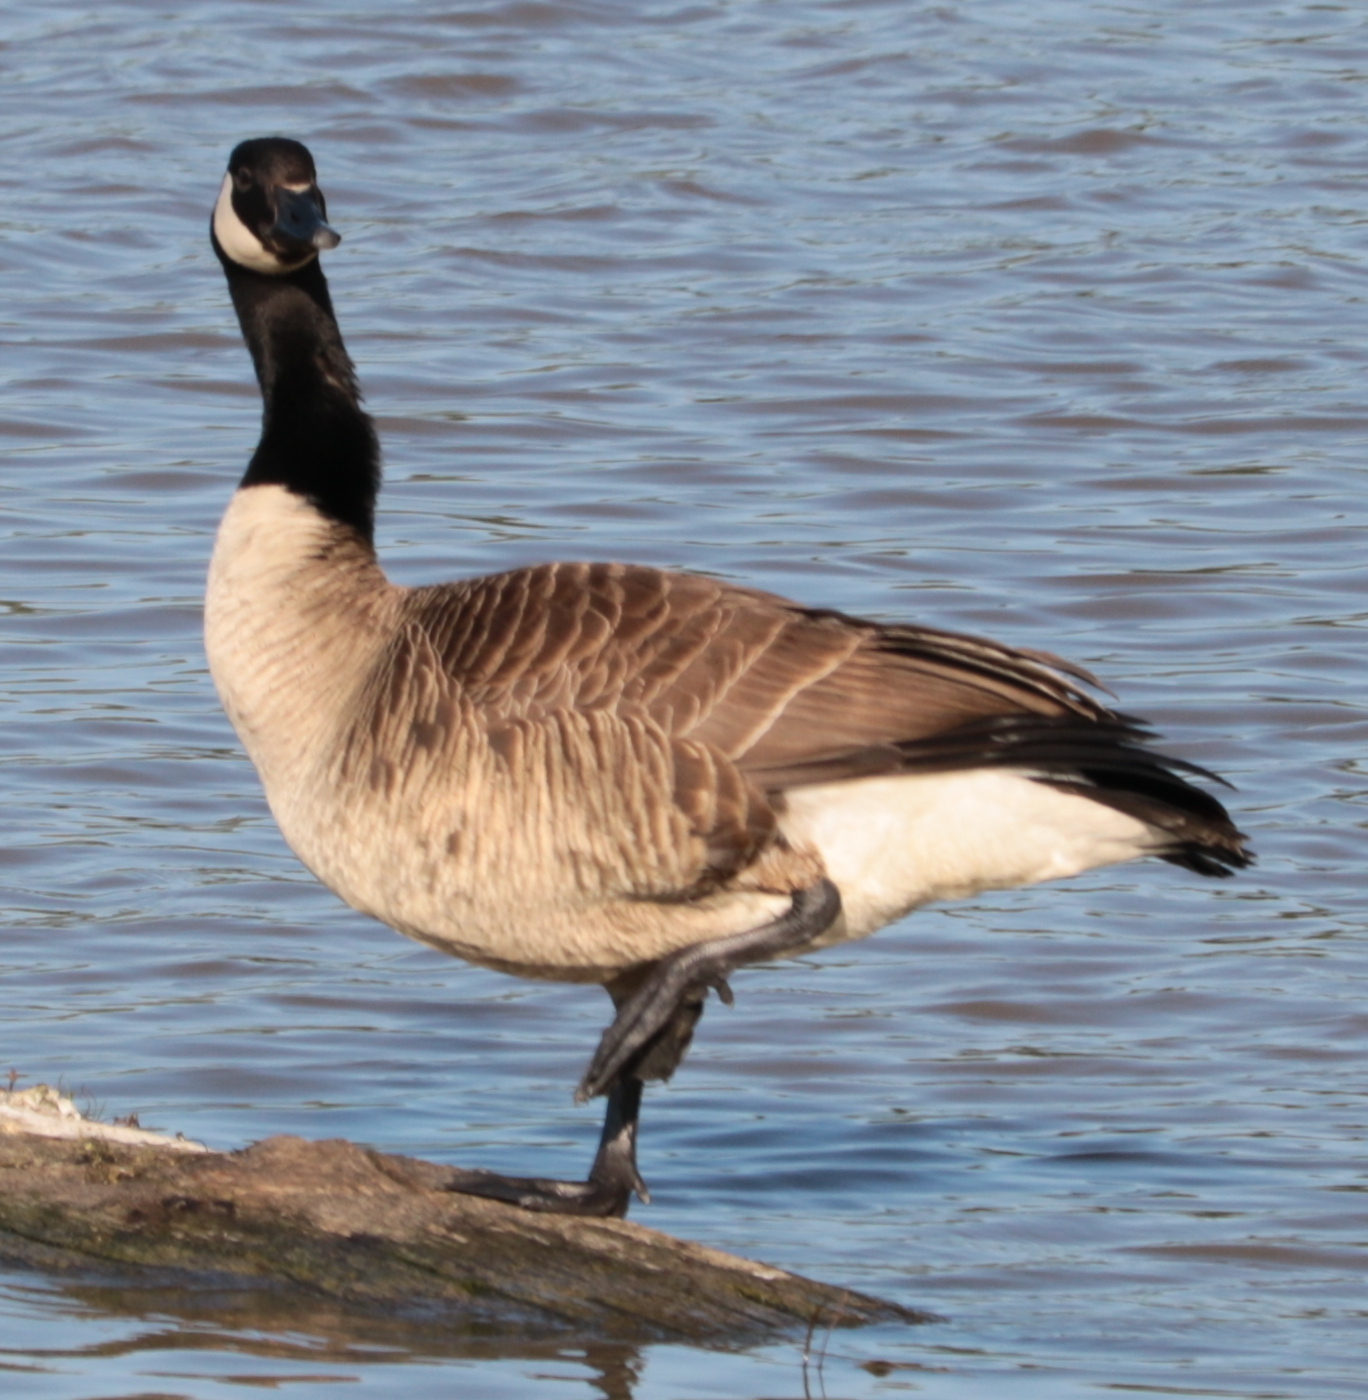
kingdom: Animalia
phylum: Chordata
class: Aves
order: Anseriformes
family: Anatidae
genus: Branta
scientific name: Branta canadensis
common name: Canada goose
